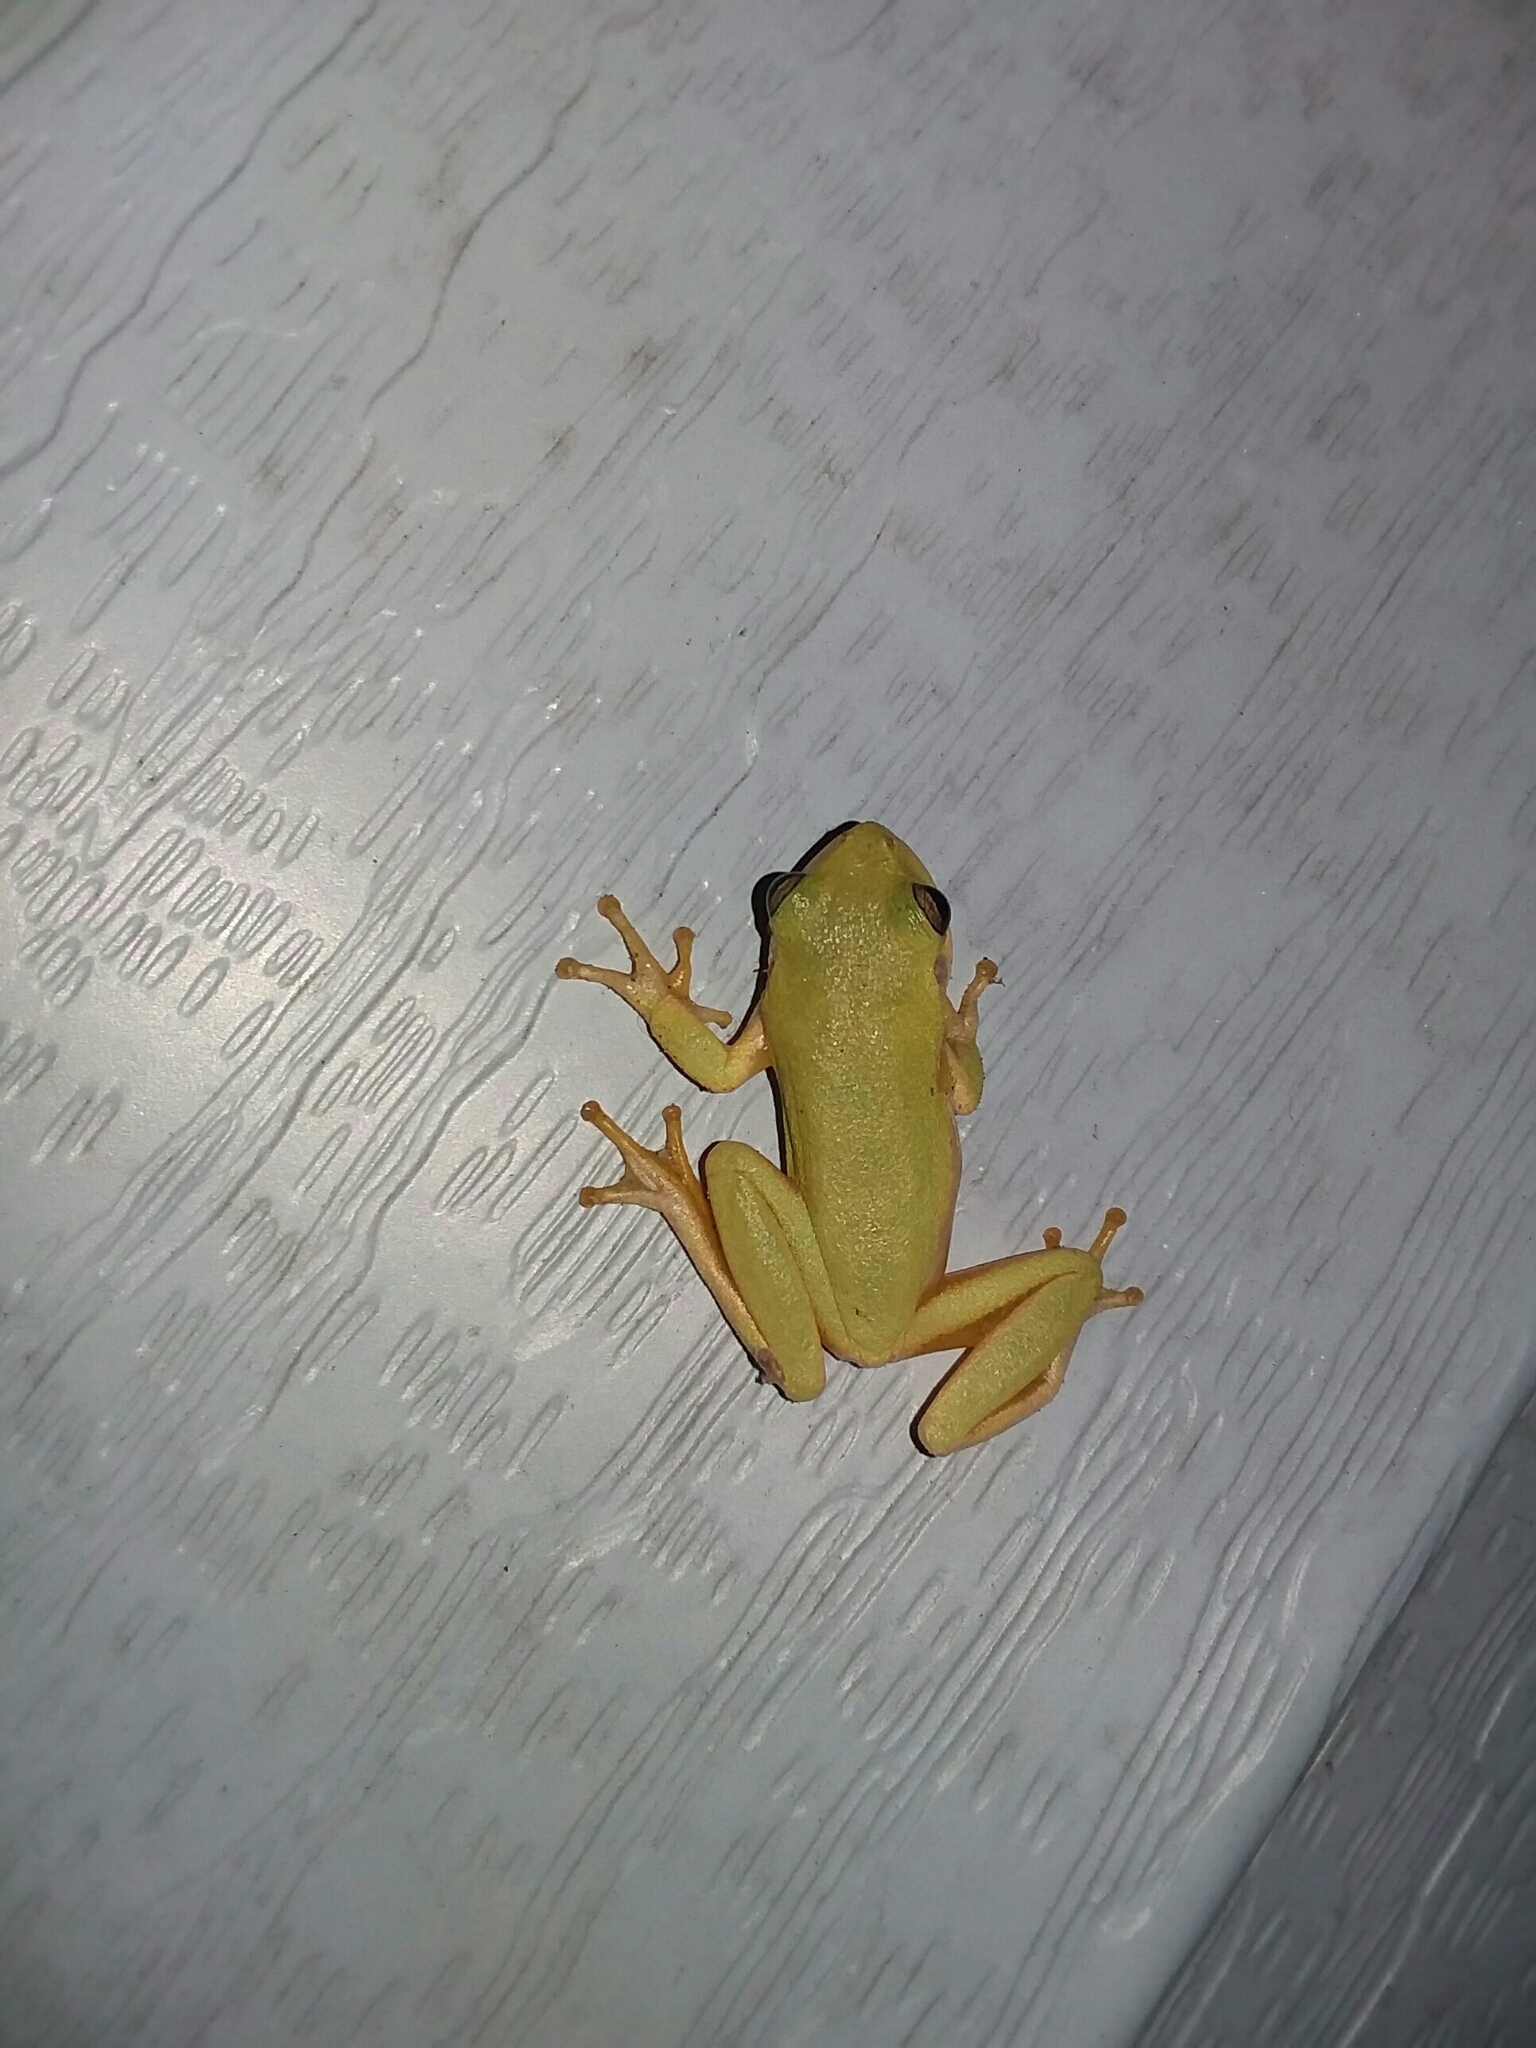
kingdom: Animalia
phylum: Chordata
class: Amphibia
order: Anura
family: Hylidae
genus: Dryophytes
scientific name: Dryophytes squirellus
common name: Squirrel treefrog
